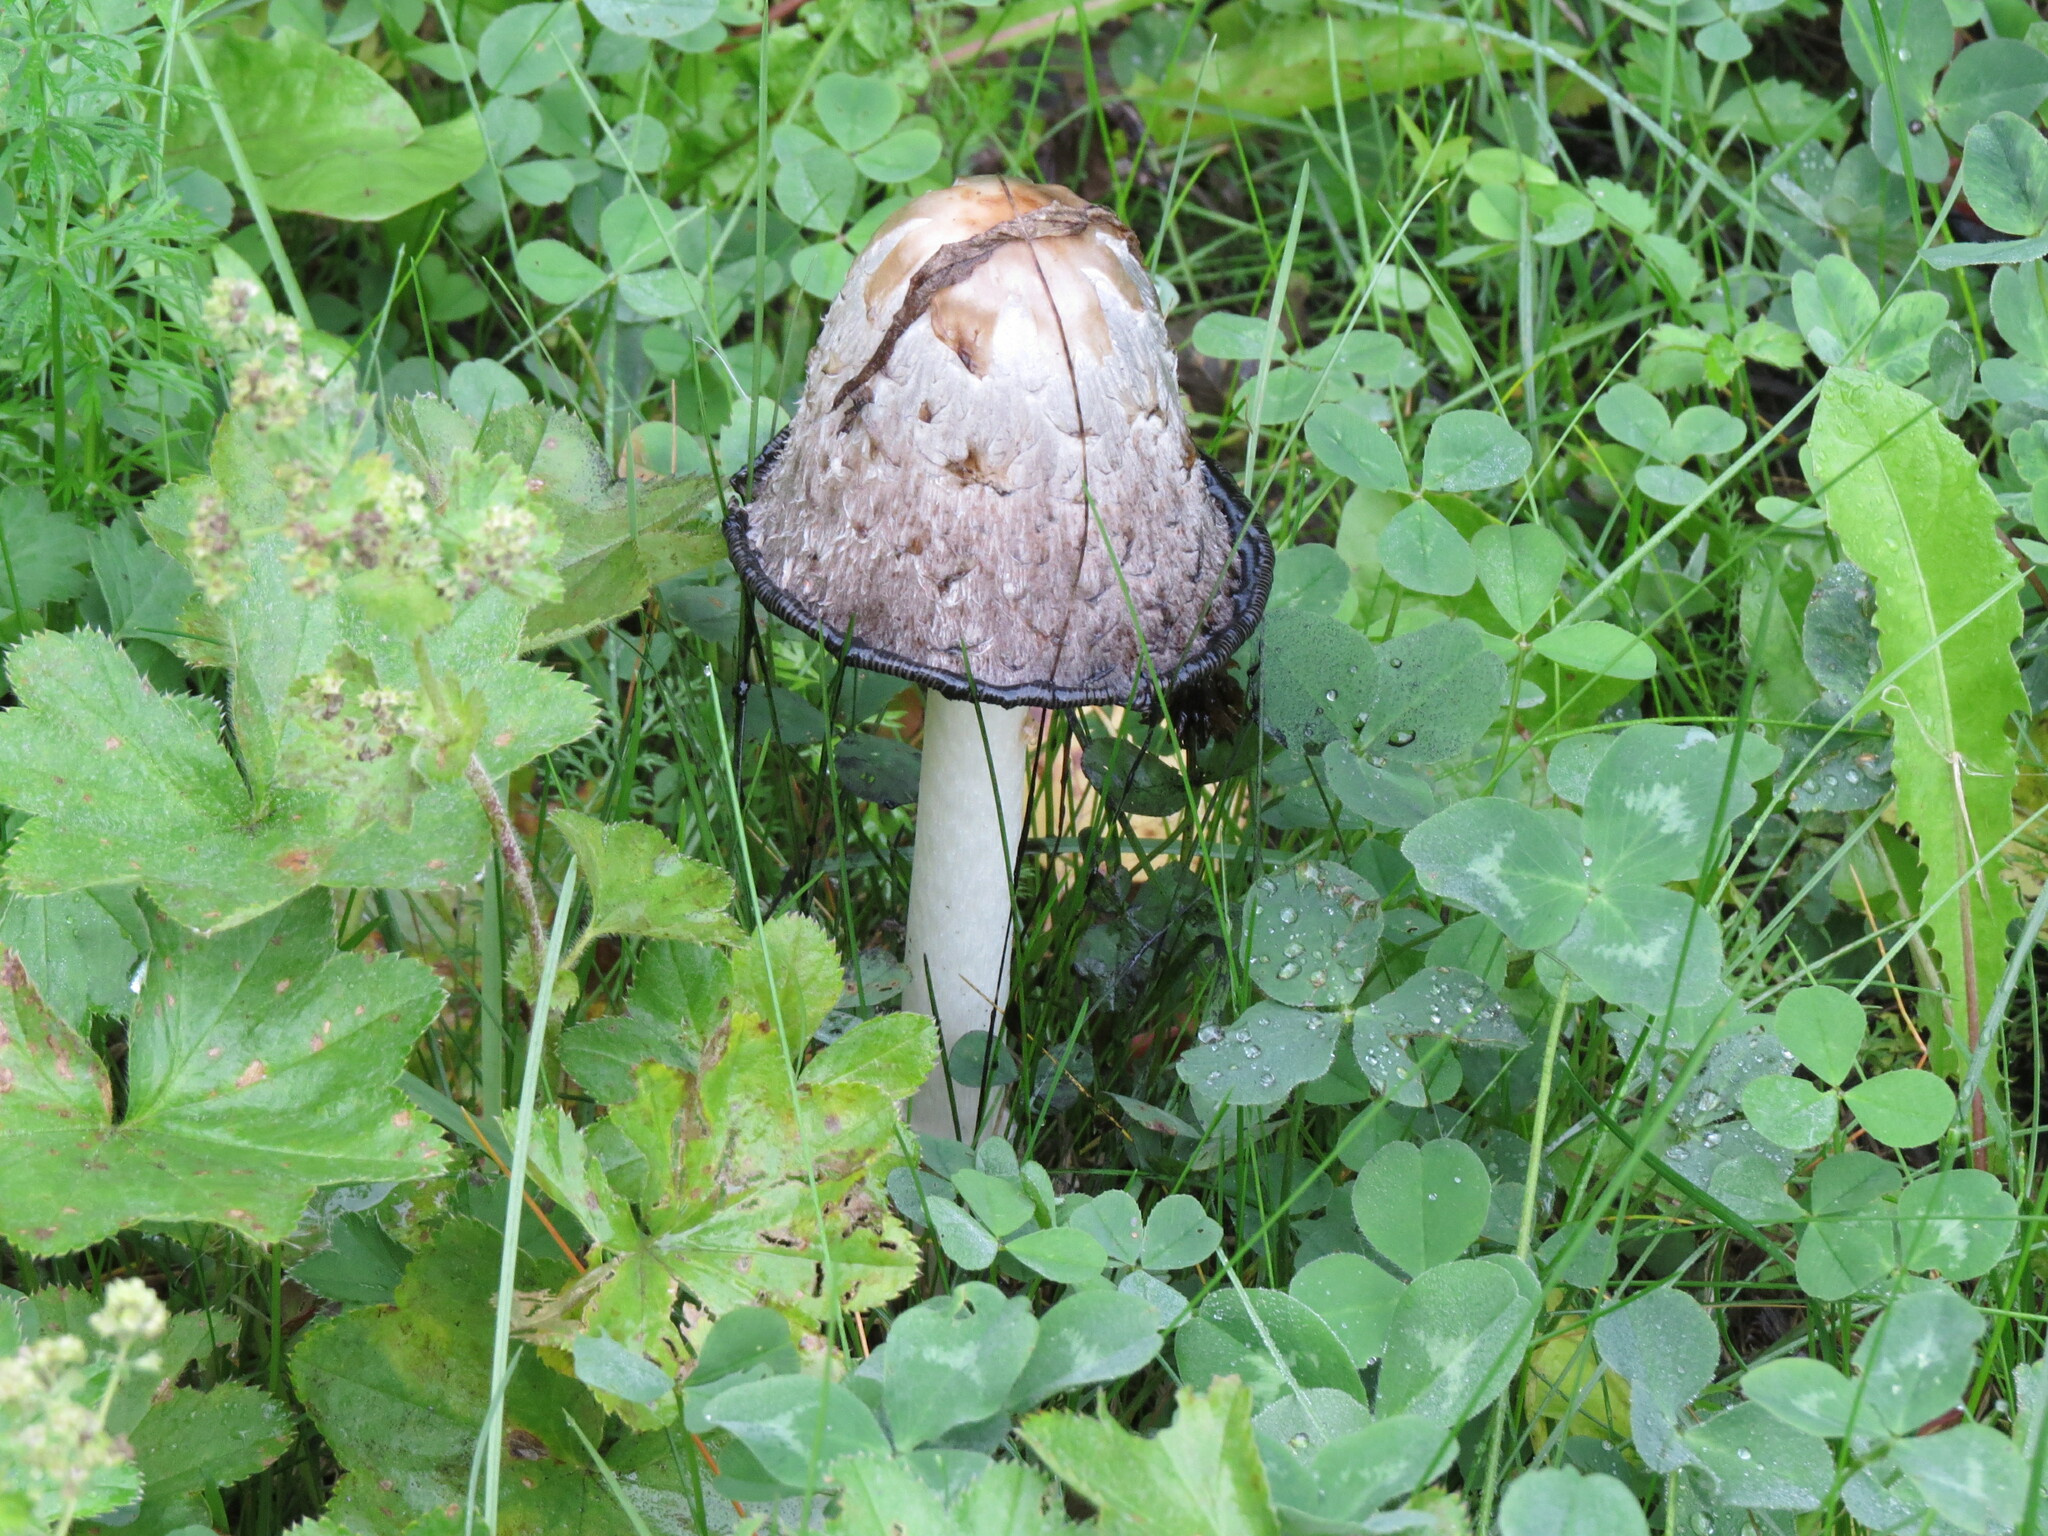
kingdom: Fungi
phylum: Basidiomycota
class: Agaricomycetes
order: Agaricales
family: Agaricaceae
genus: Coprinus
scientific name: Coprinus comatus
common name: Lawyer's wig
